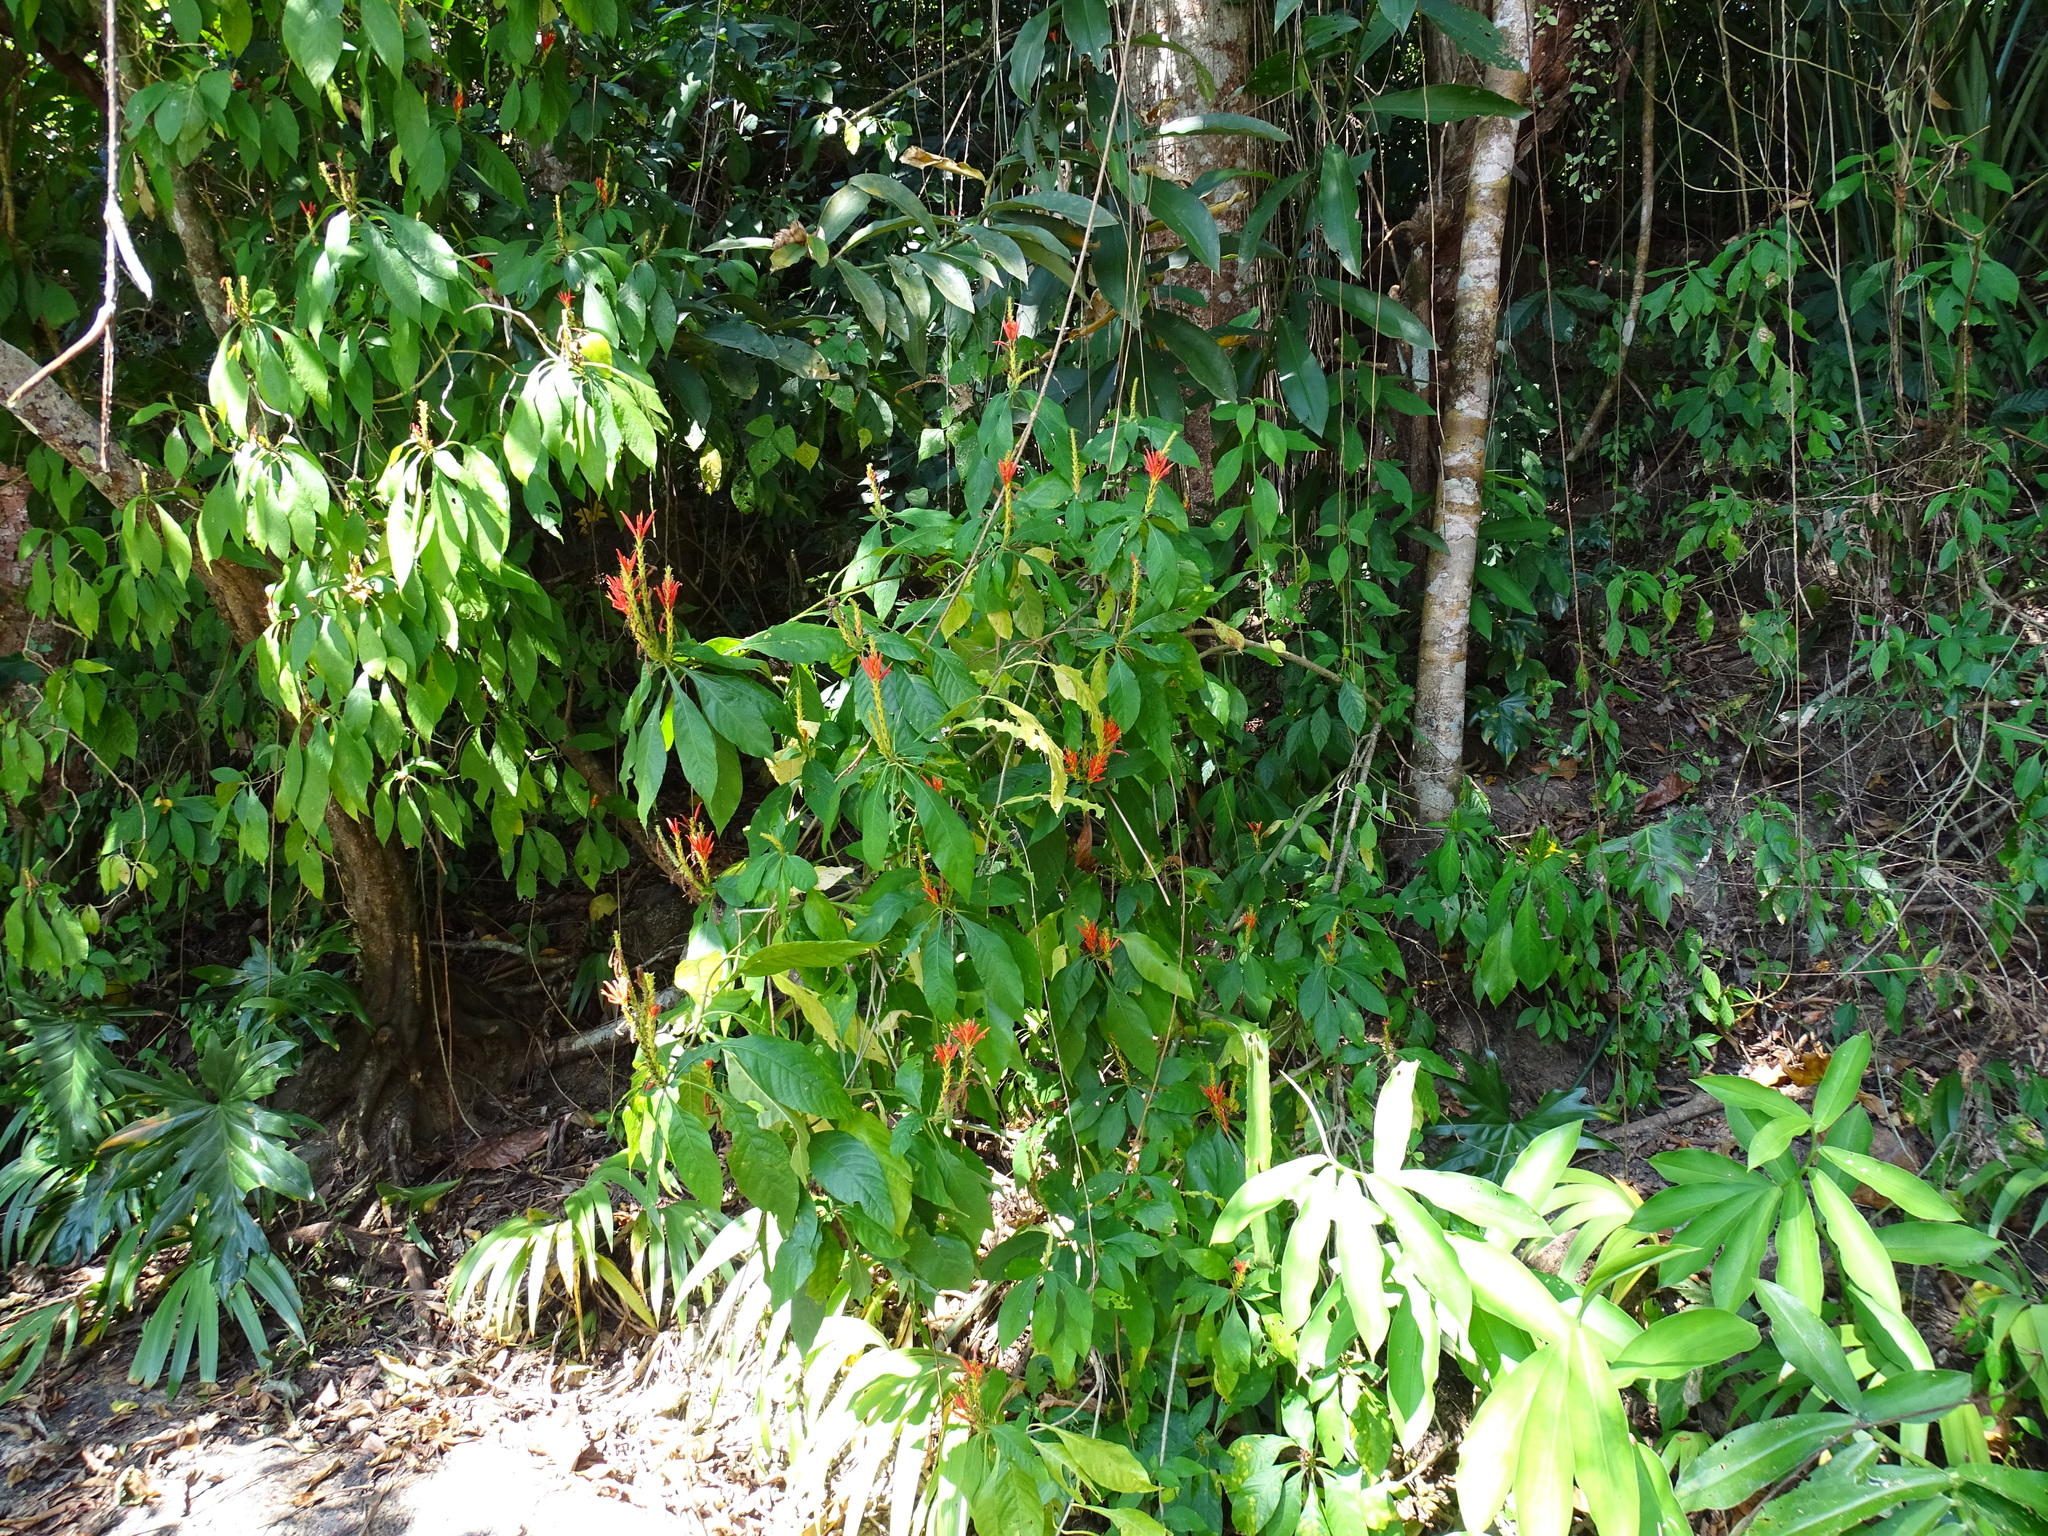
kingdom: Plantae
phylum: Tracheophyta
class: Magnoliopsida
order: Lamiales
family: Acanthaceae
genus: Aphelandra
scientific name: Aphelandra scabra
